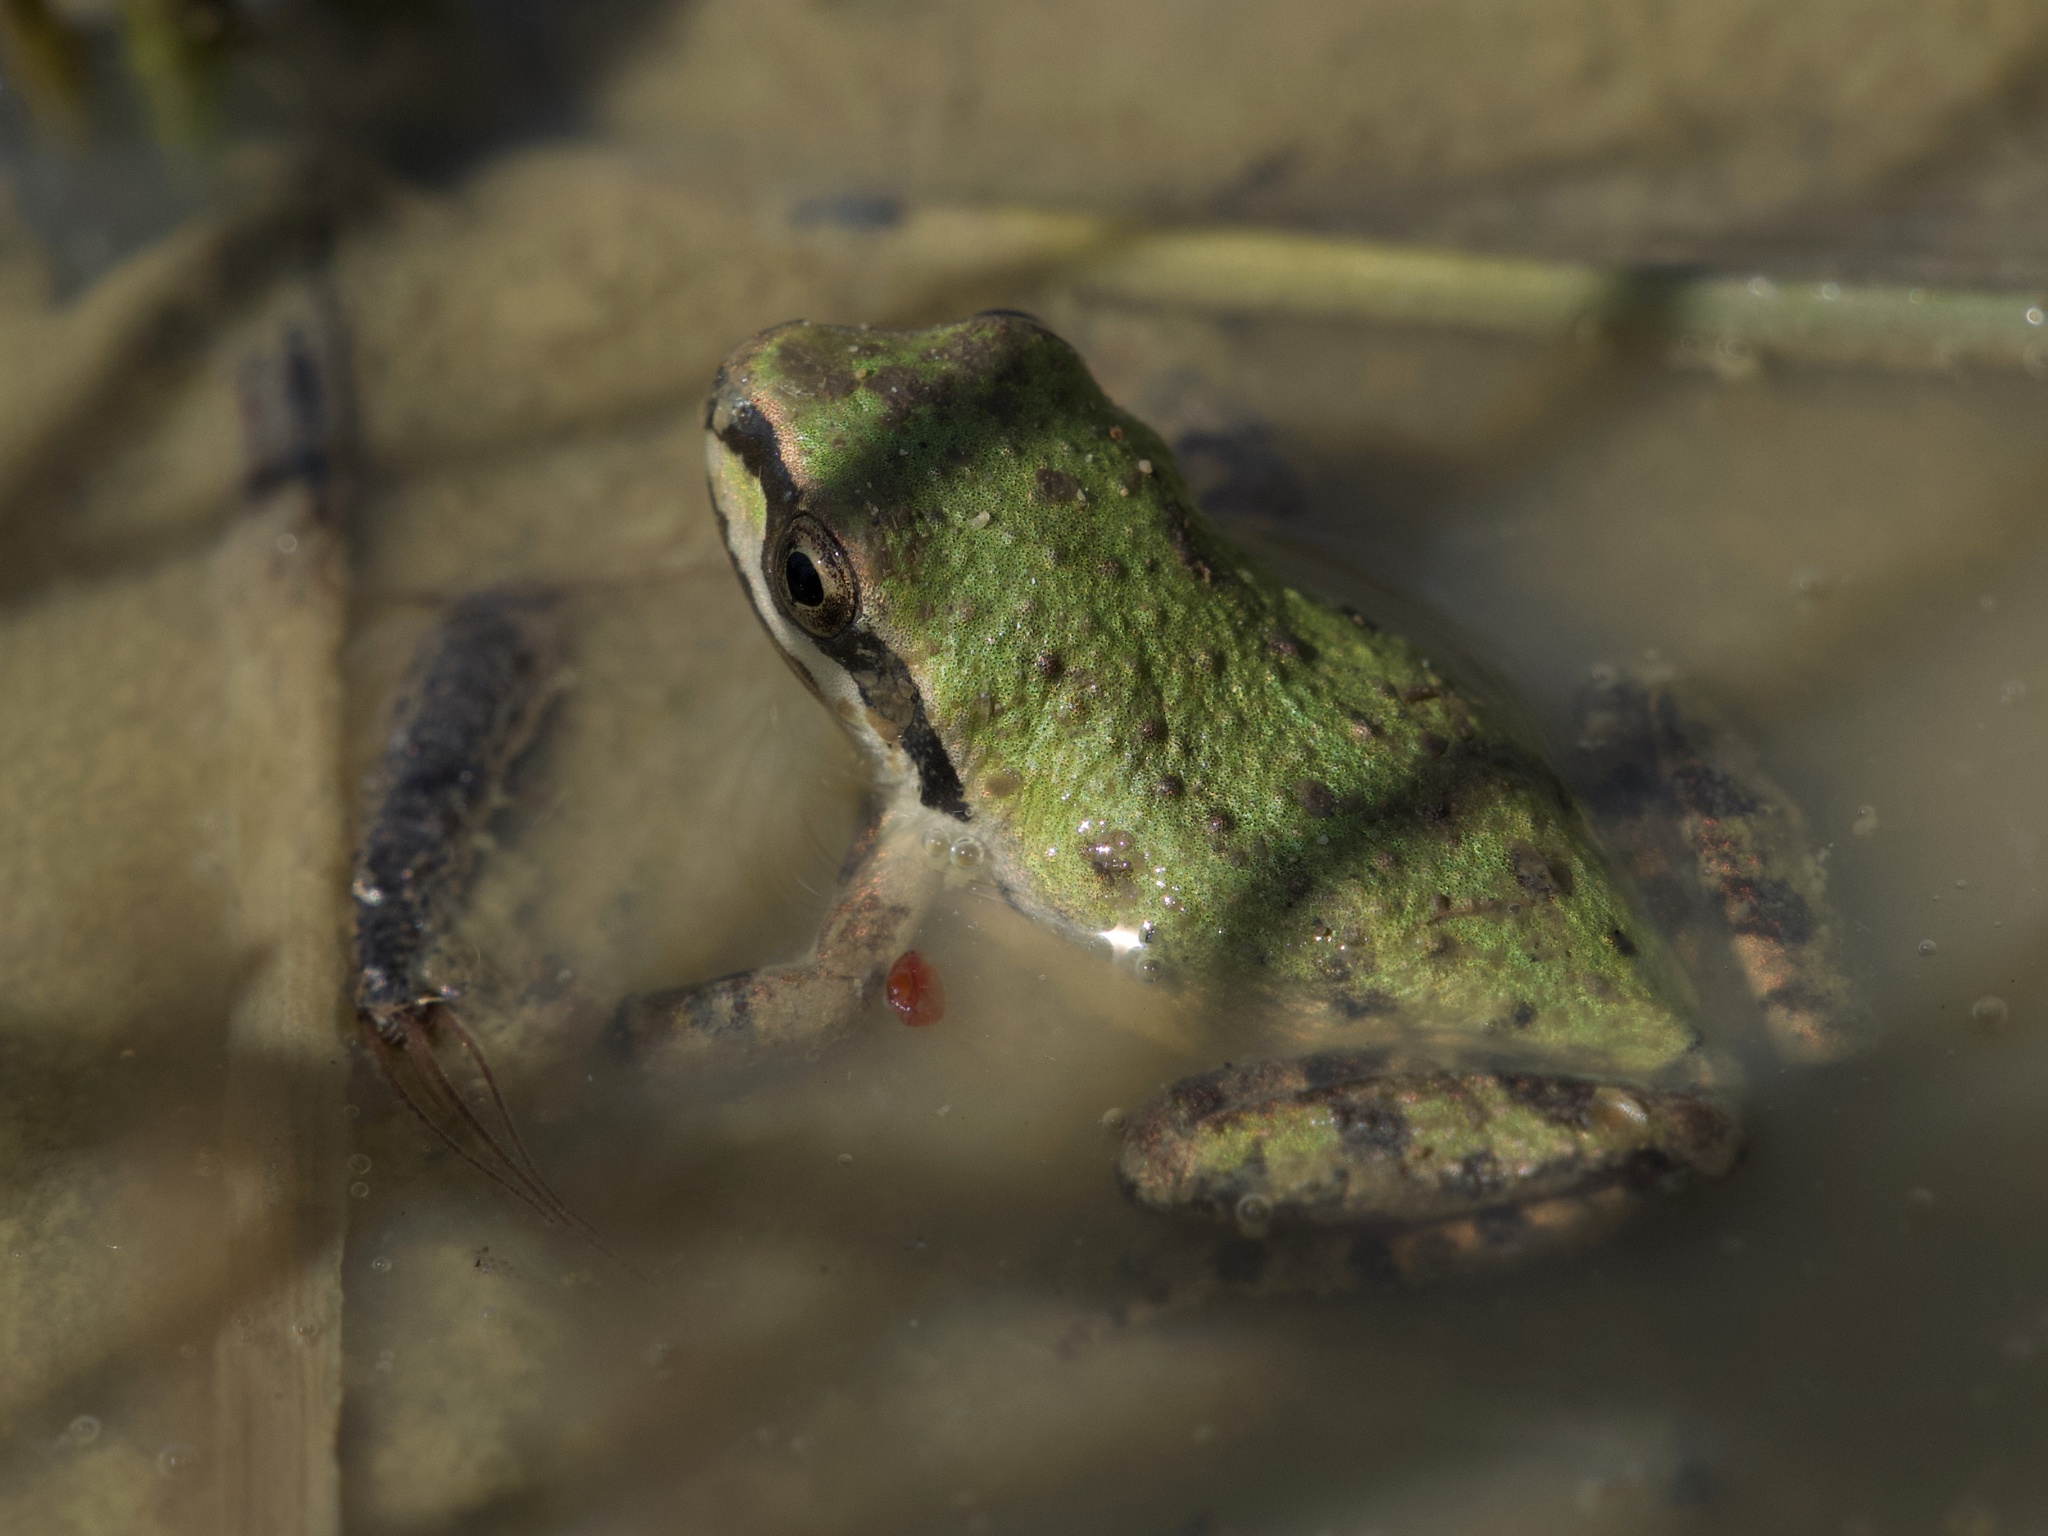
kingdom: Animalia
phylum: Chordata
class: Amphibia
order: Anura
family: Hylidae
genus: Pseudacris
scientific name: Pseudacris regilla
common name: Pacific chorus frog
